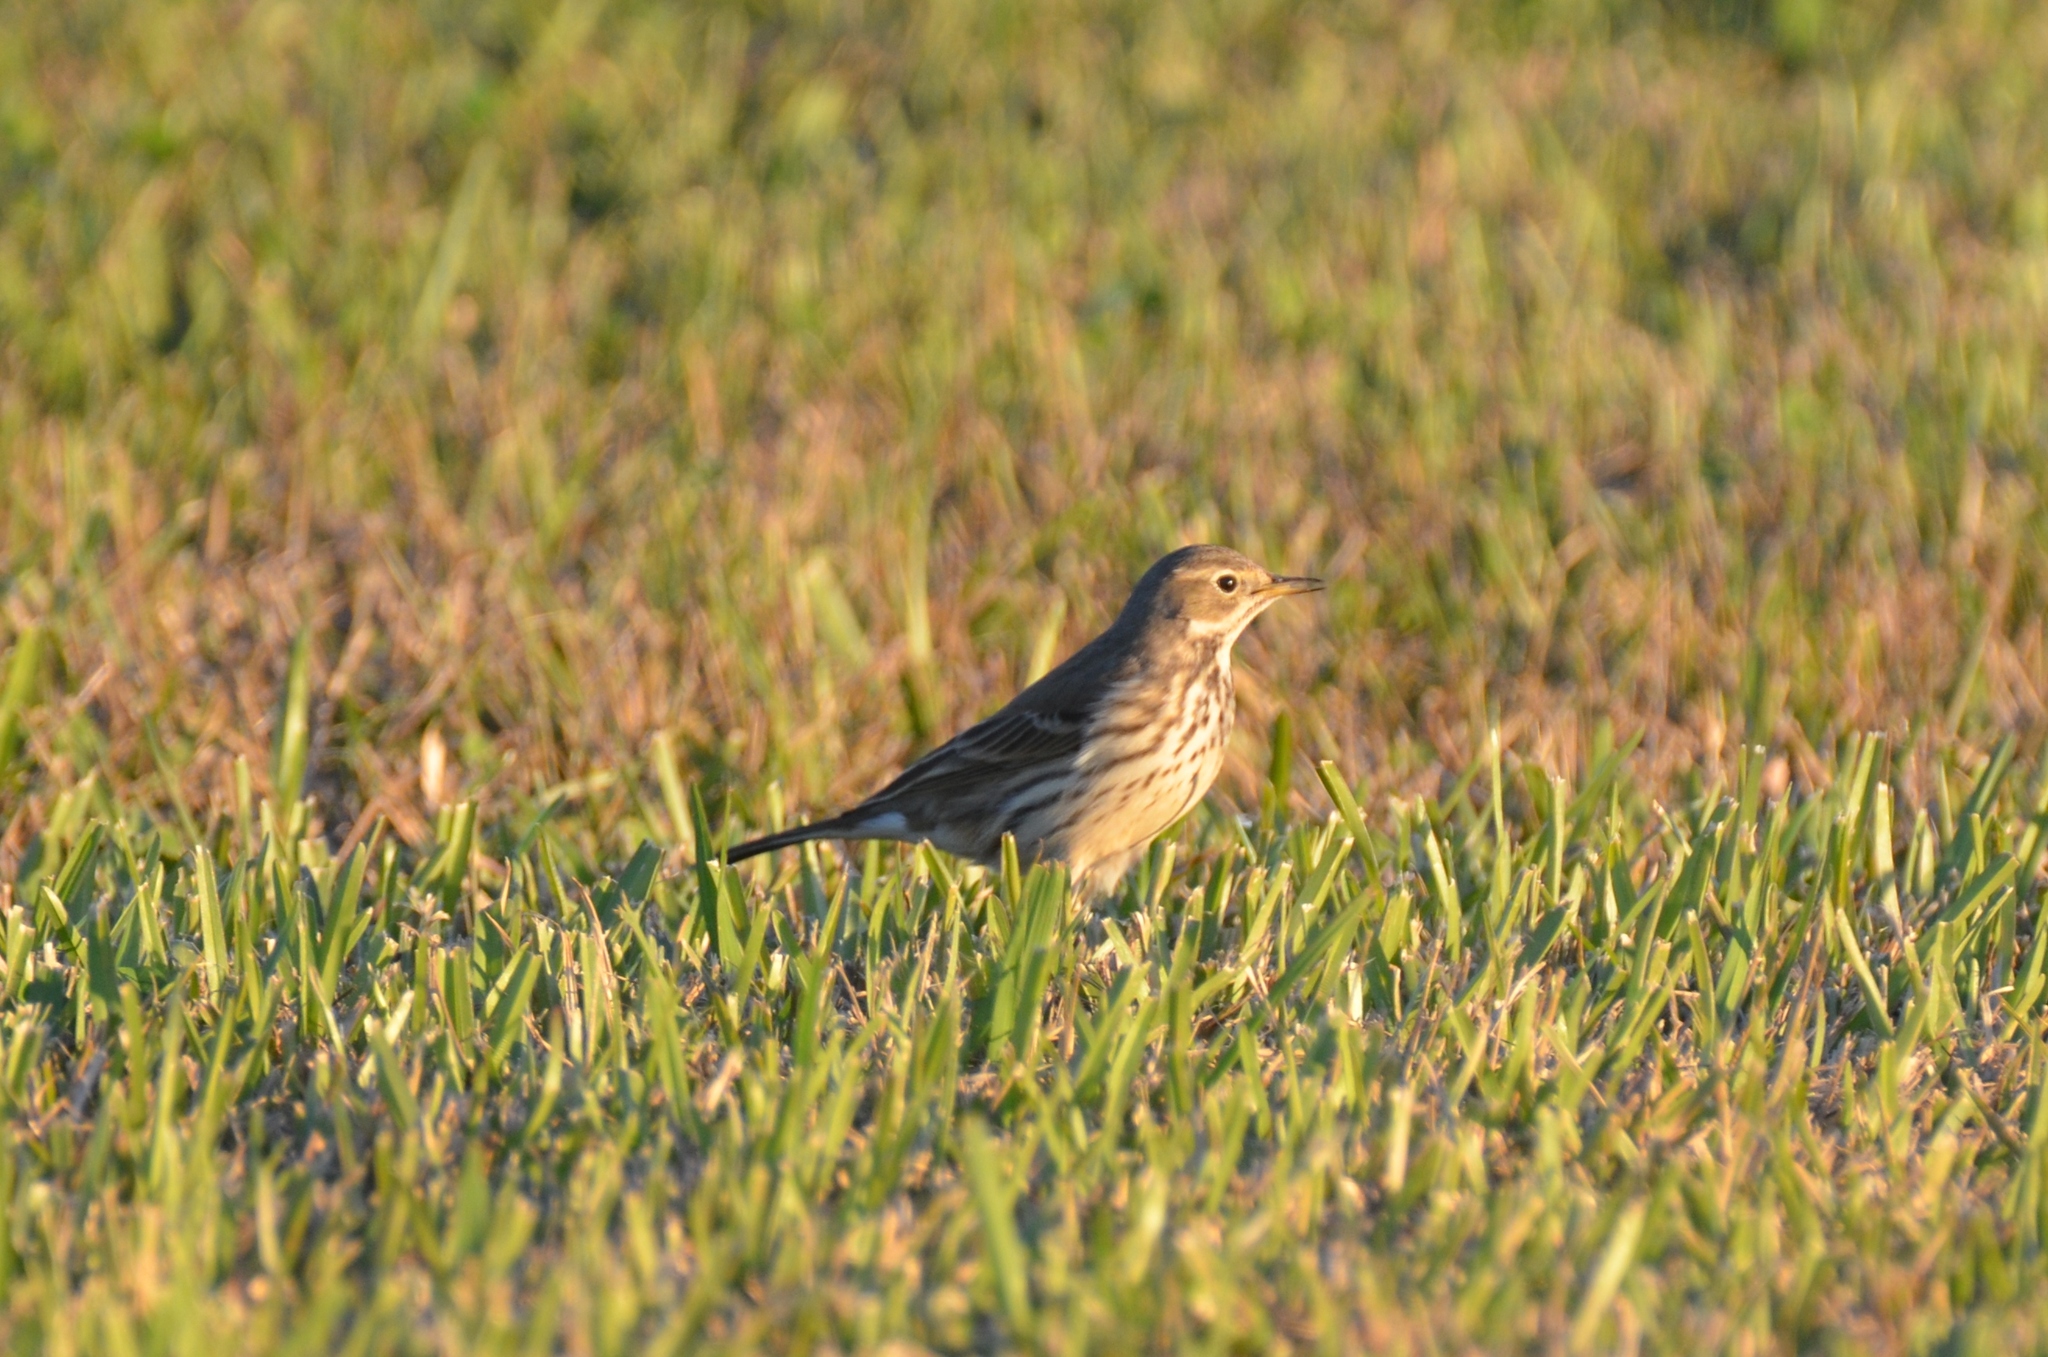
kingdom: Animalia
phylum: Chordata
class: Aves
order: Passeriformes
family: Motacillidae
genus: Anthus
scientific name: Anthus rubescens
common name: Buff-bellied pipit
